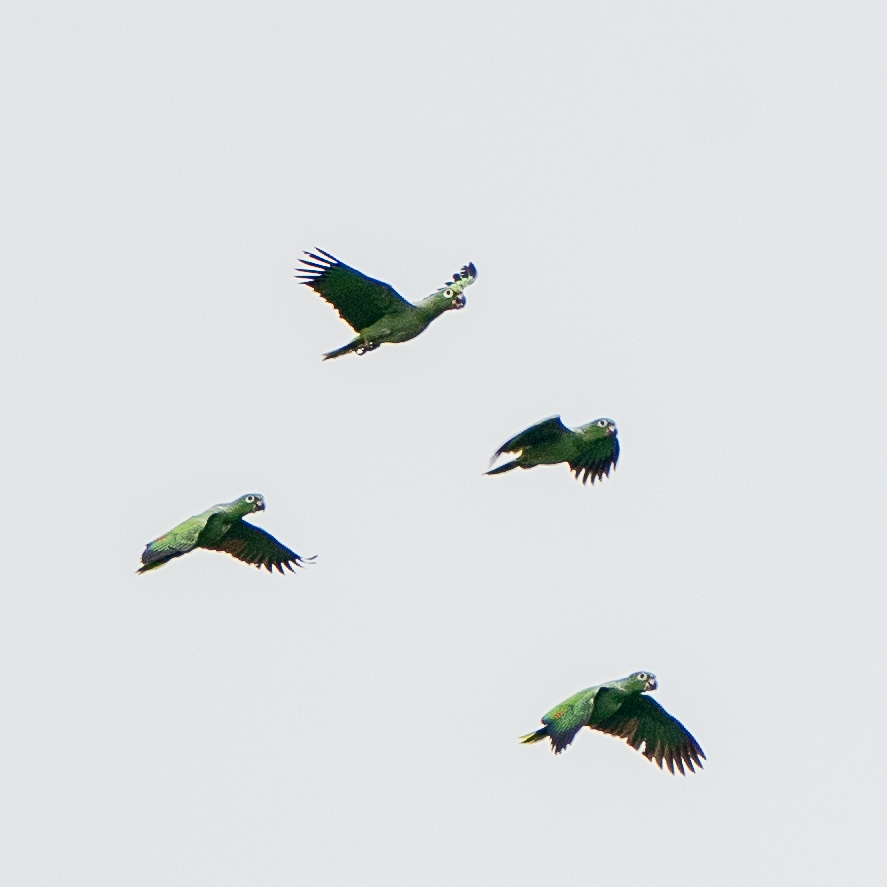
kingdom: Animalia
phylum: Chordata
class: Aves
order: Psittaciformes
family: Psittacidae
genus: Amazona
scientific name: Amazona farinosa
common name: Mealy parrot
